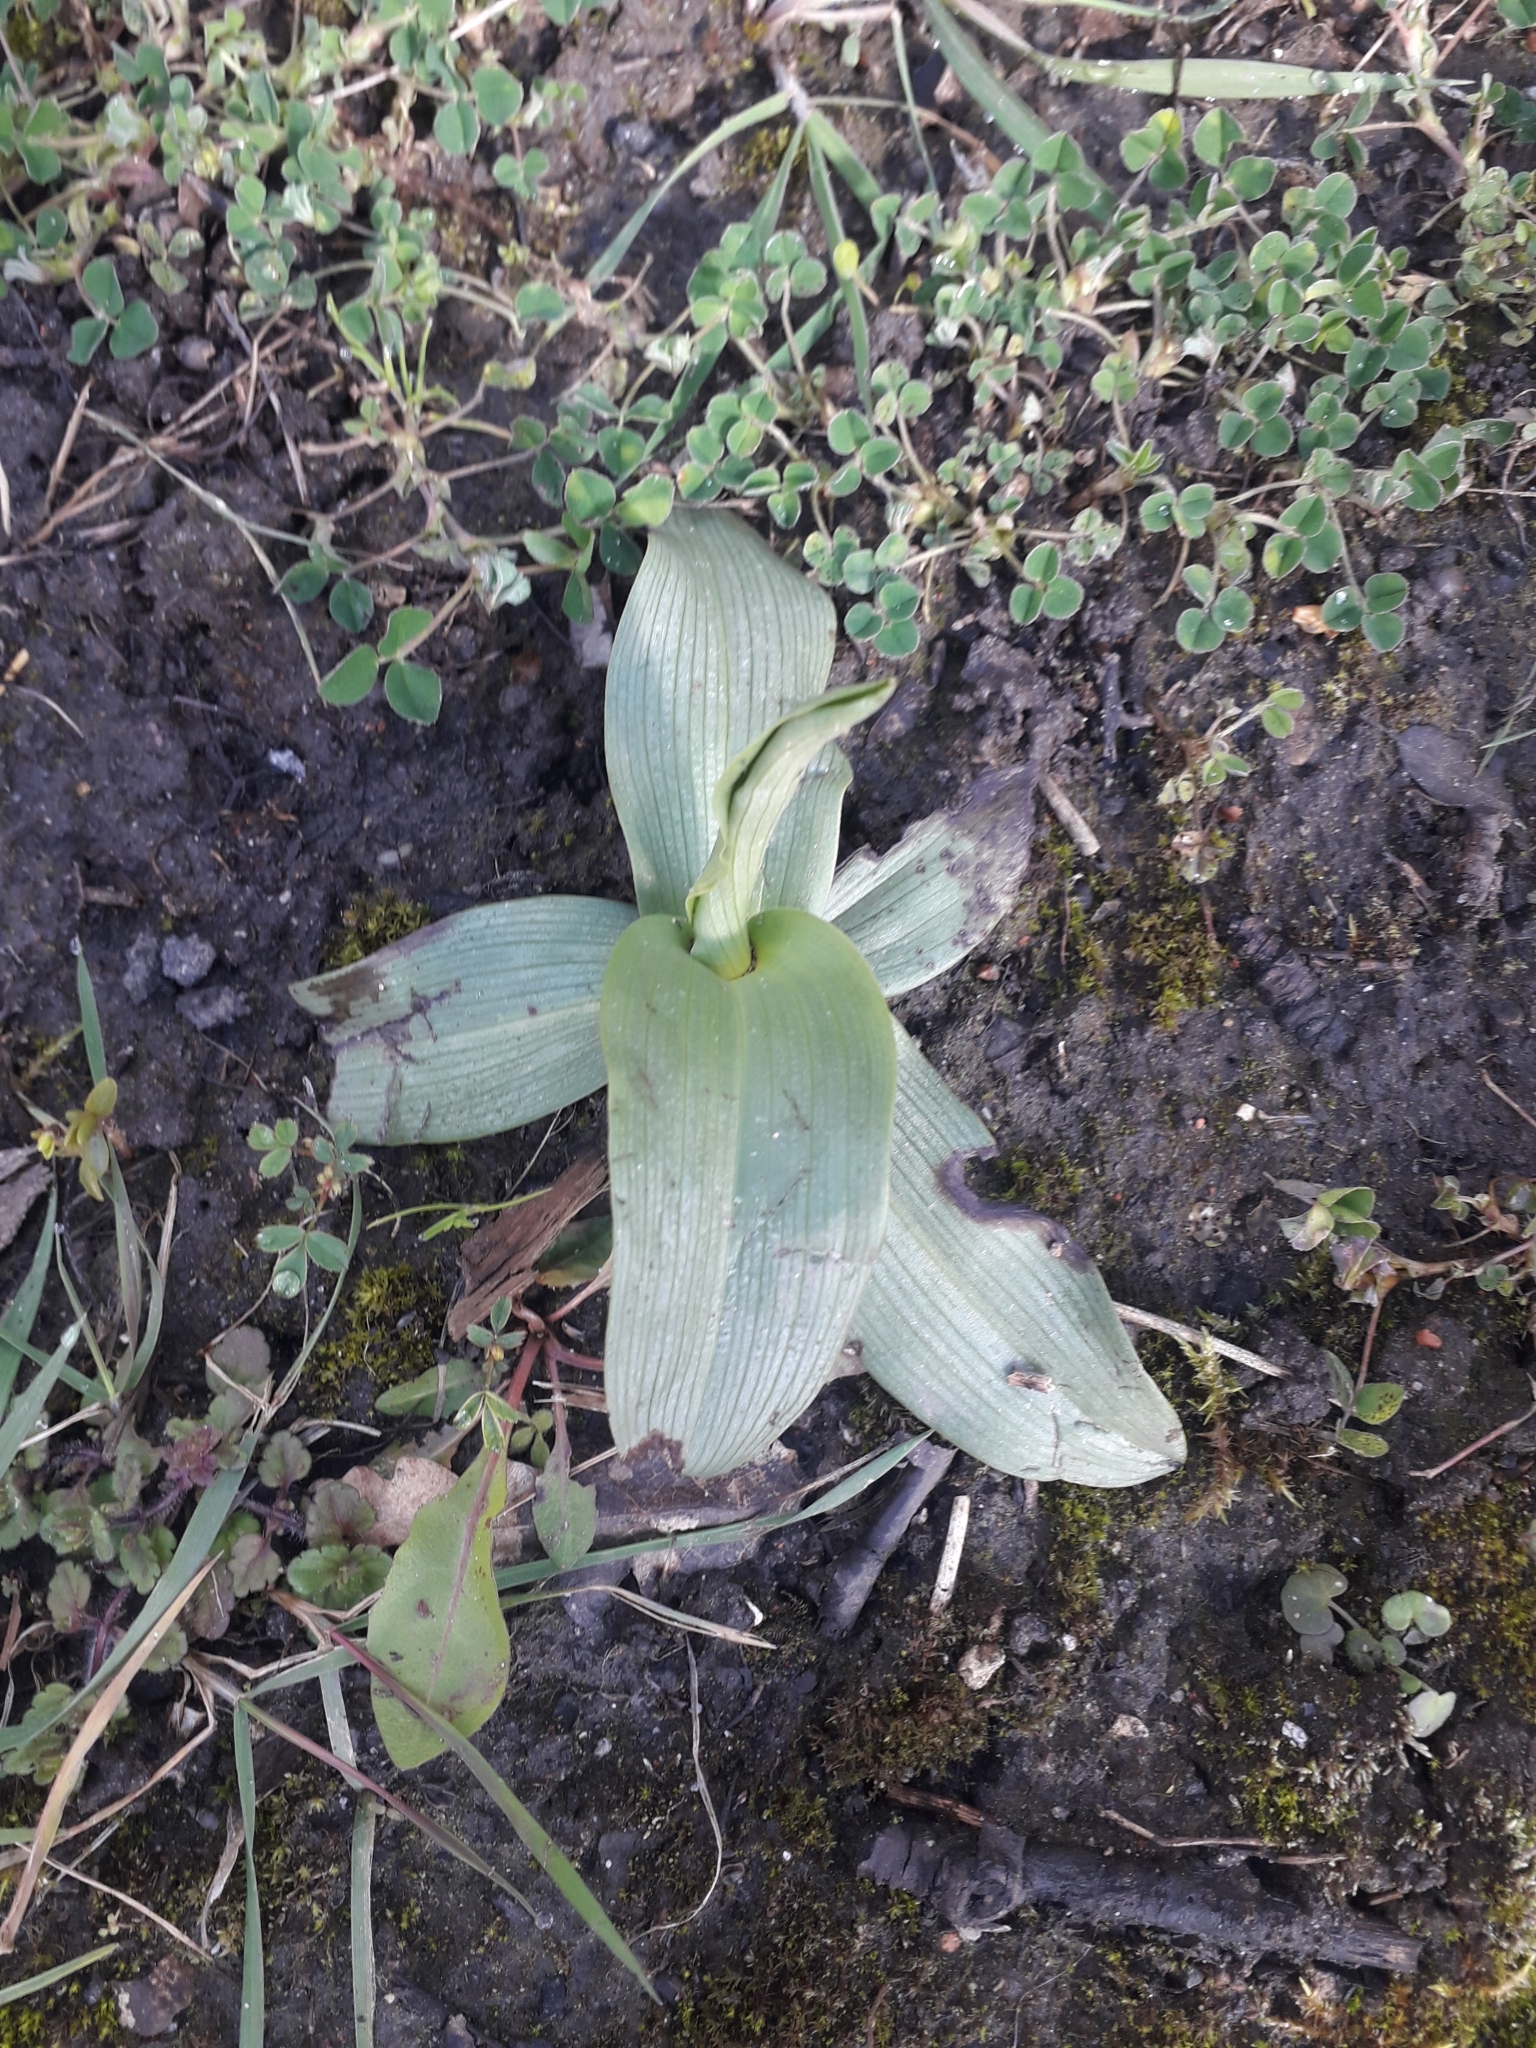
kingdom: Plantae
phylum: Tracheophyta
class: Liliopsida
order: Asparagales
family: Orchidaceae
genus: Ophrys
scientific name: Ophrys apifera
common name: Bee orchid
